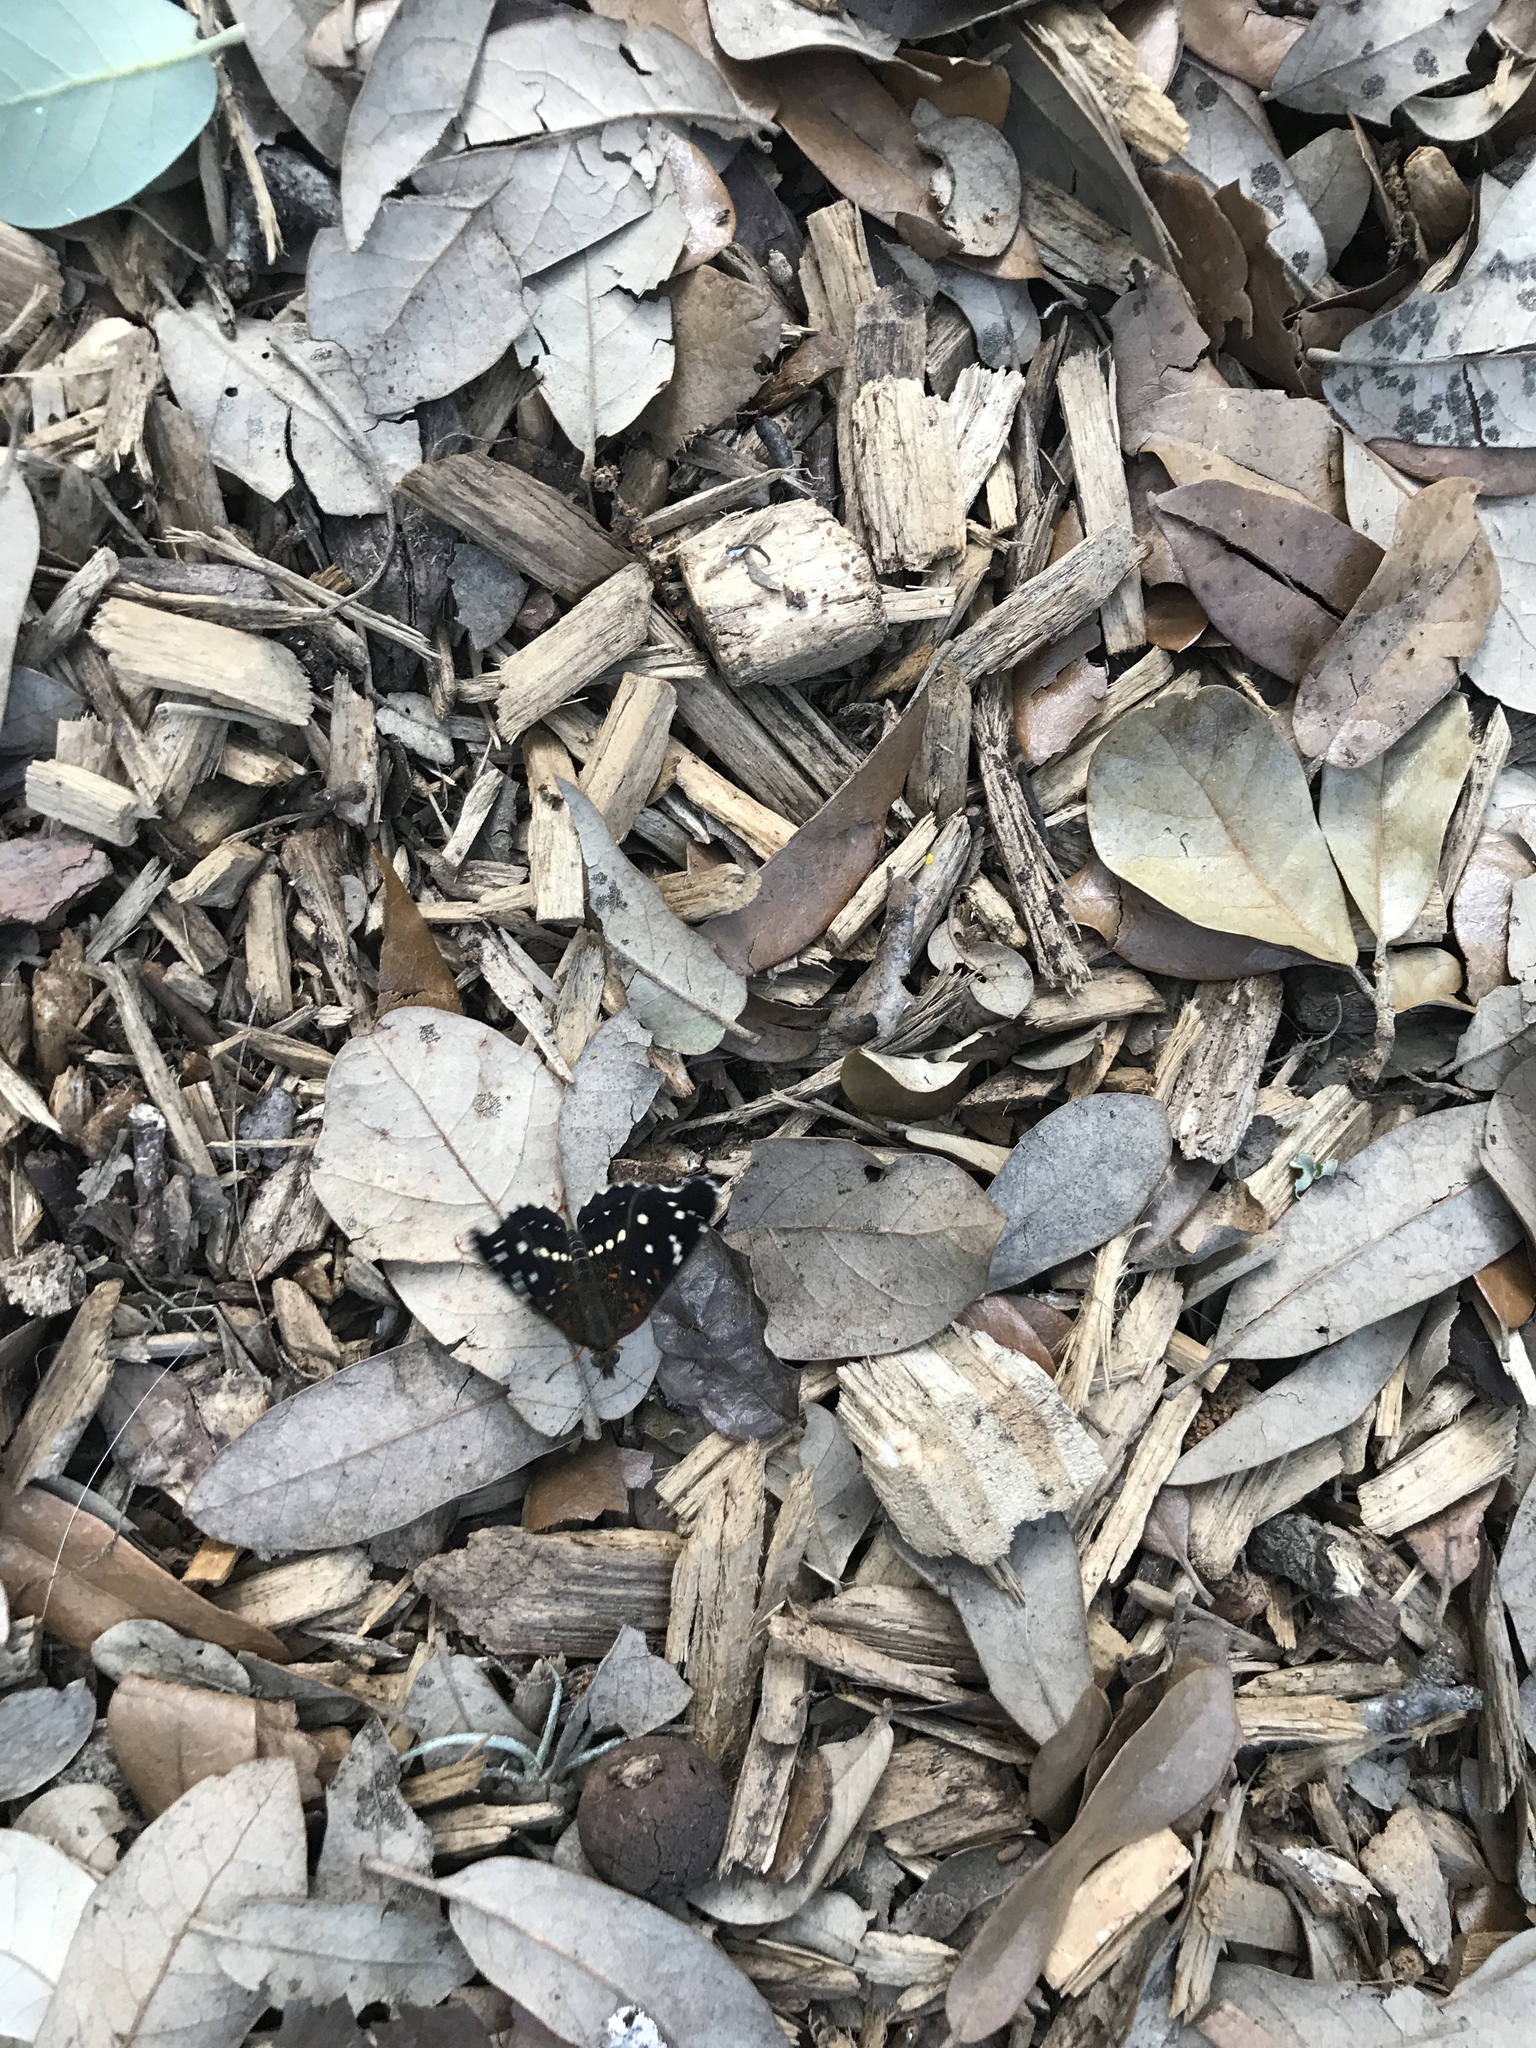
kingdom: Animalia
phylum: Arthropoda
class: Insecta
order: Lepidoptera
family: Nymphalidae
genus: Anthanassa
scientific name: Anthanassa texana
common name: Texan crescent
